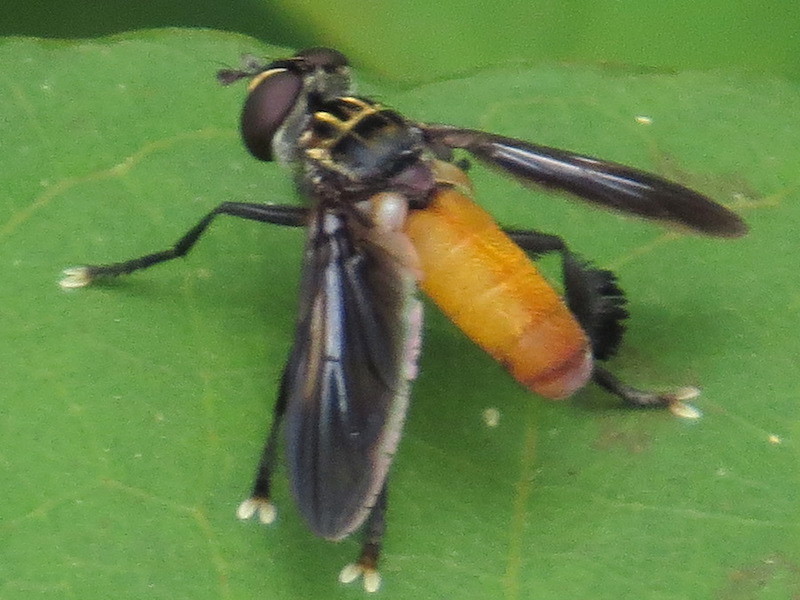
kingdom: Animalia
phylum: Arthropoda
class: Insecta
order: Diptera
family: Tachinidae
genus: Trichopoda
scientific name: Trichopoda pennipes
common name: Tachinid fly
